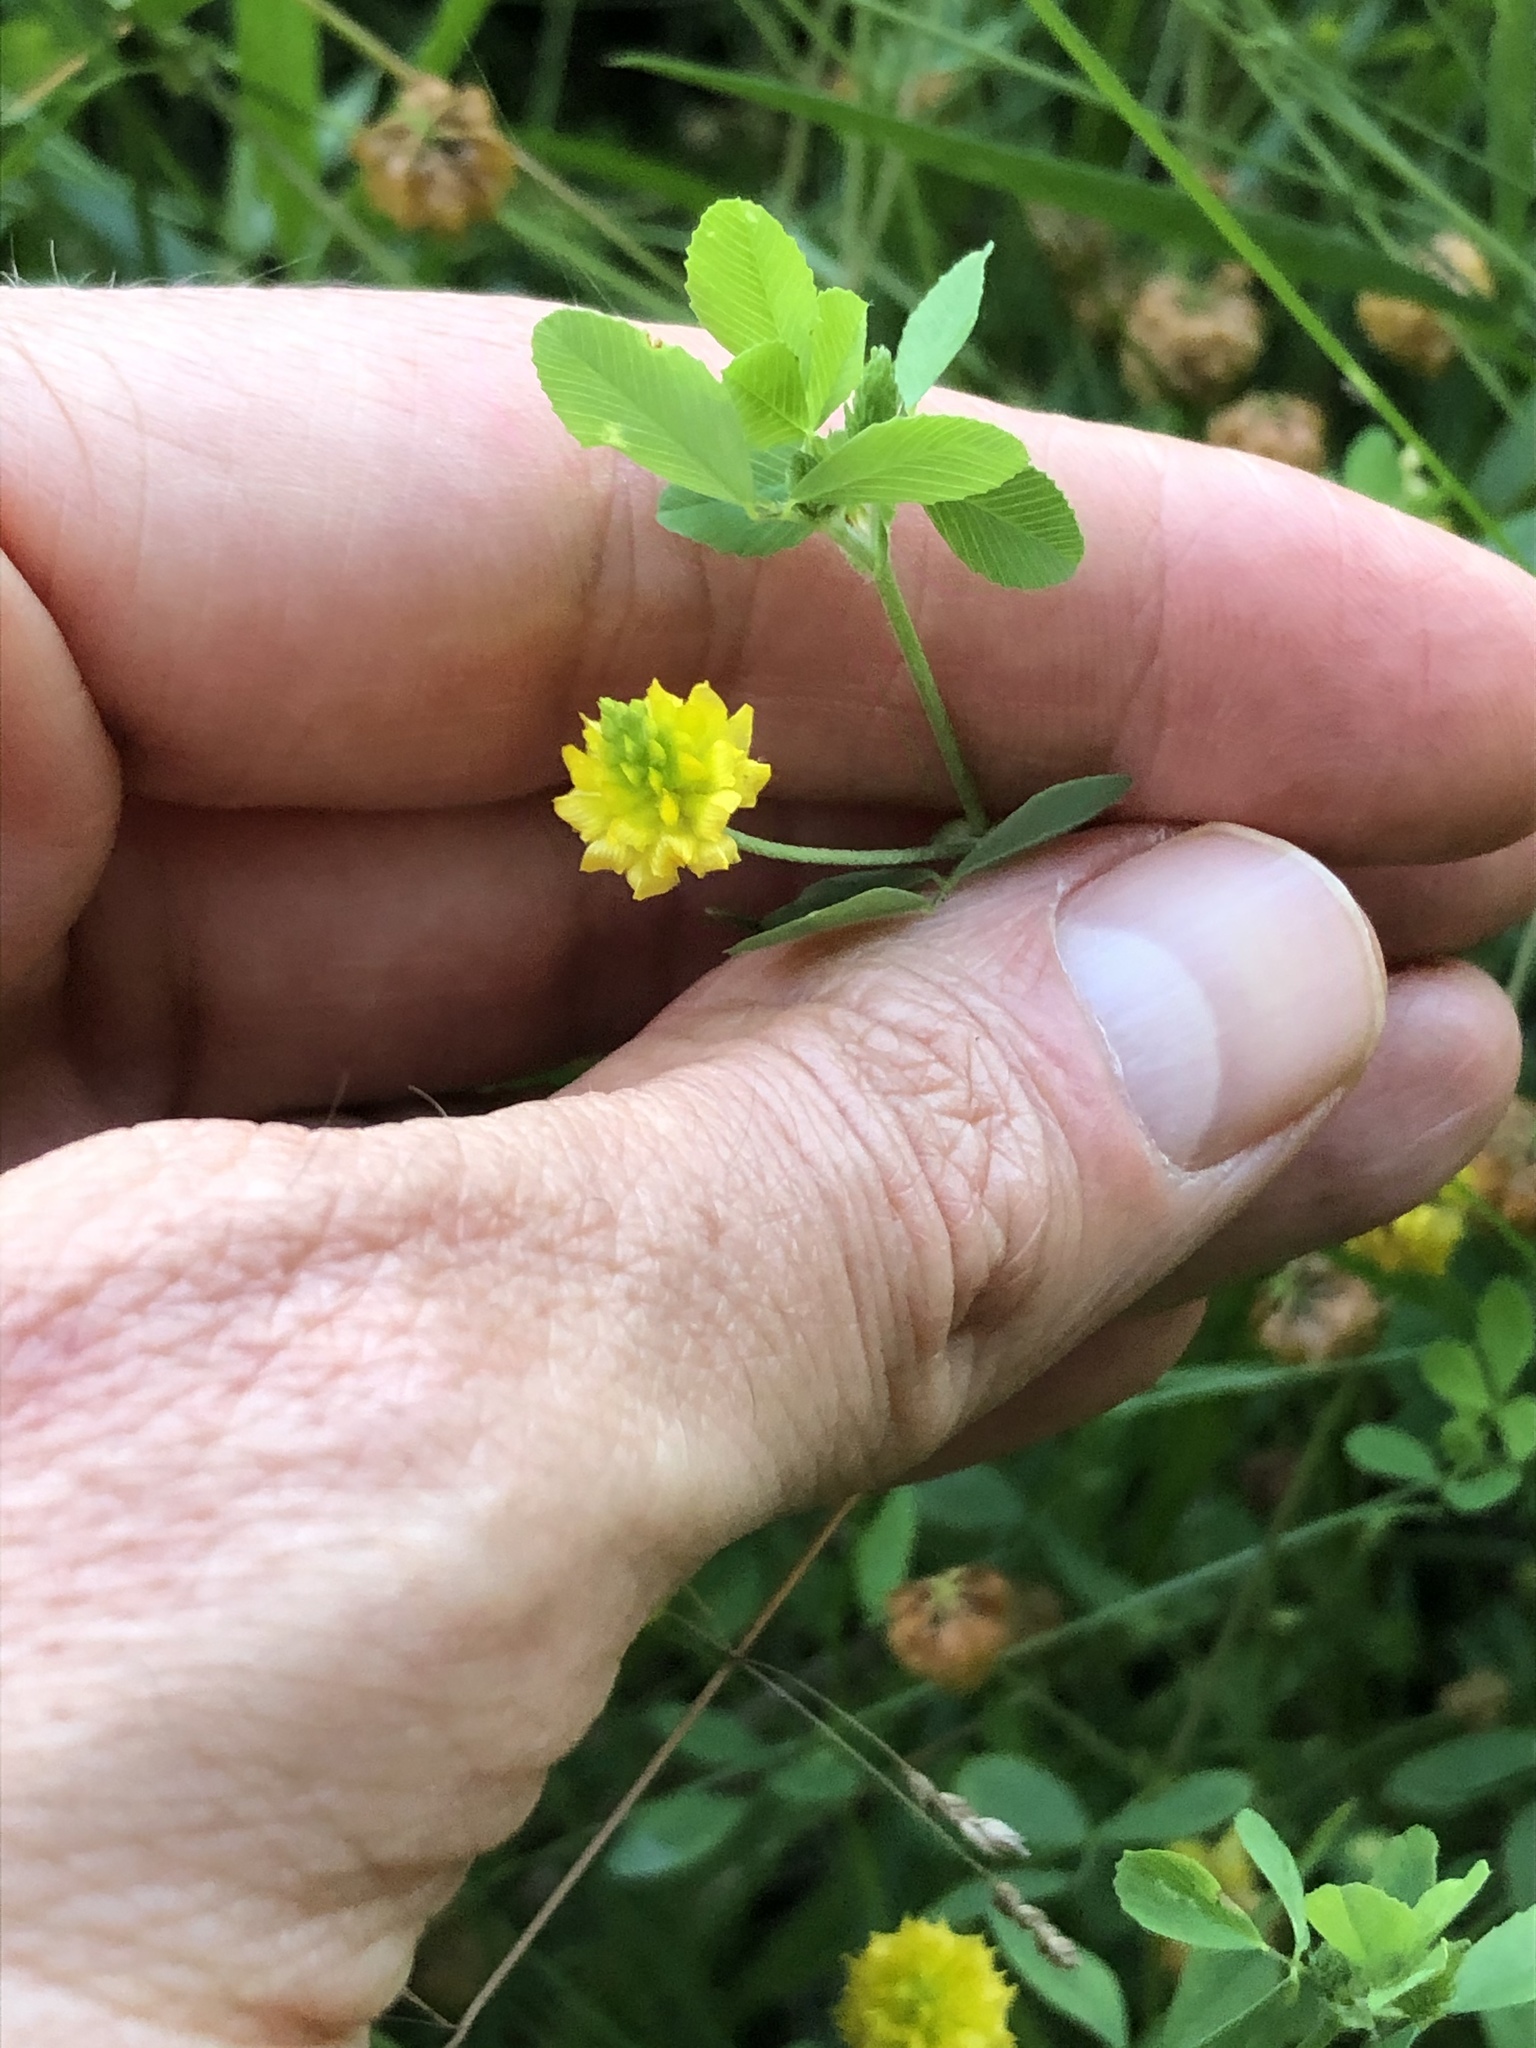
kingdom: Plantae
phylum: Tracheophyta
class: Magnoliopsida
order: Fabales
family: Fabaceae
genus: Trifolium
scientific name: Trifolium campestre
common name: Field clover
